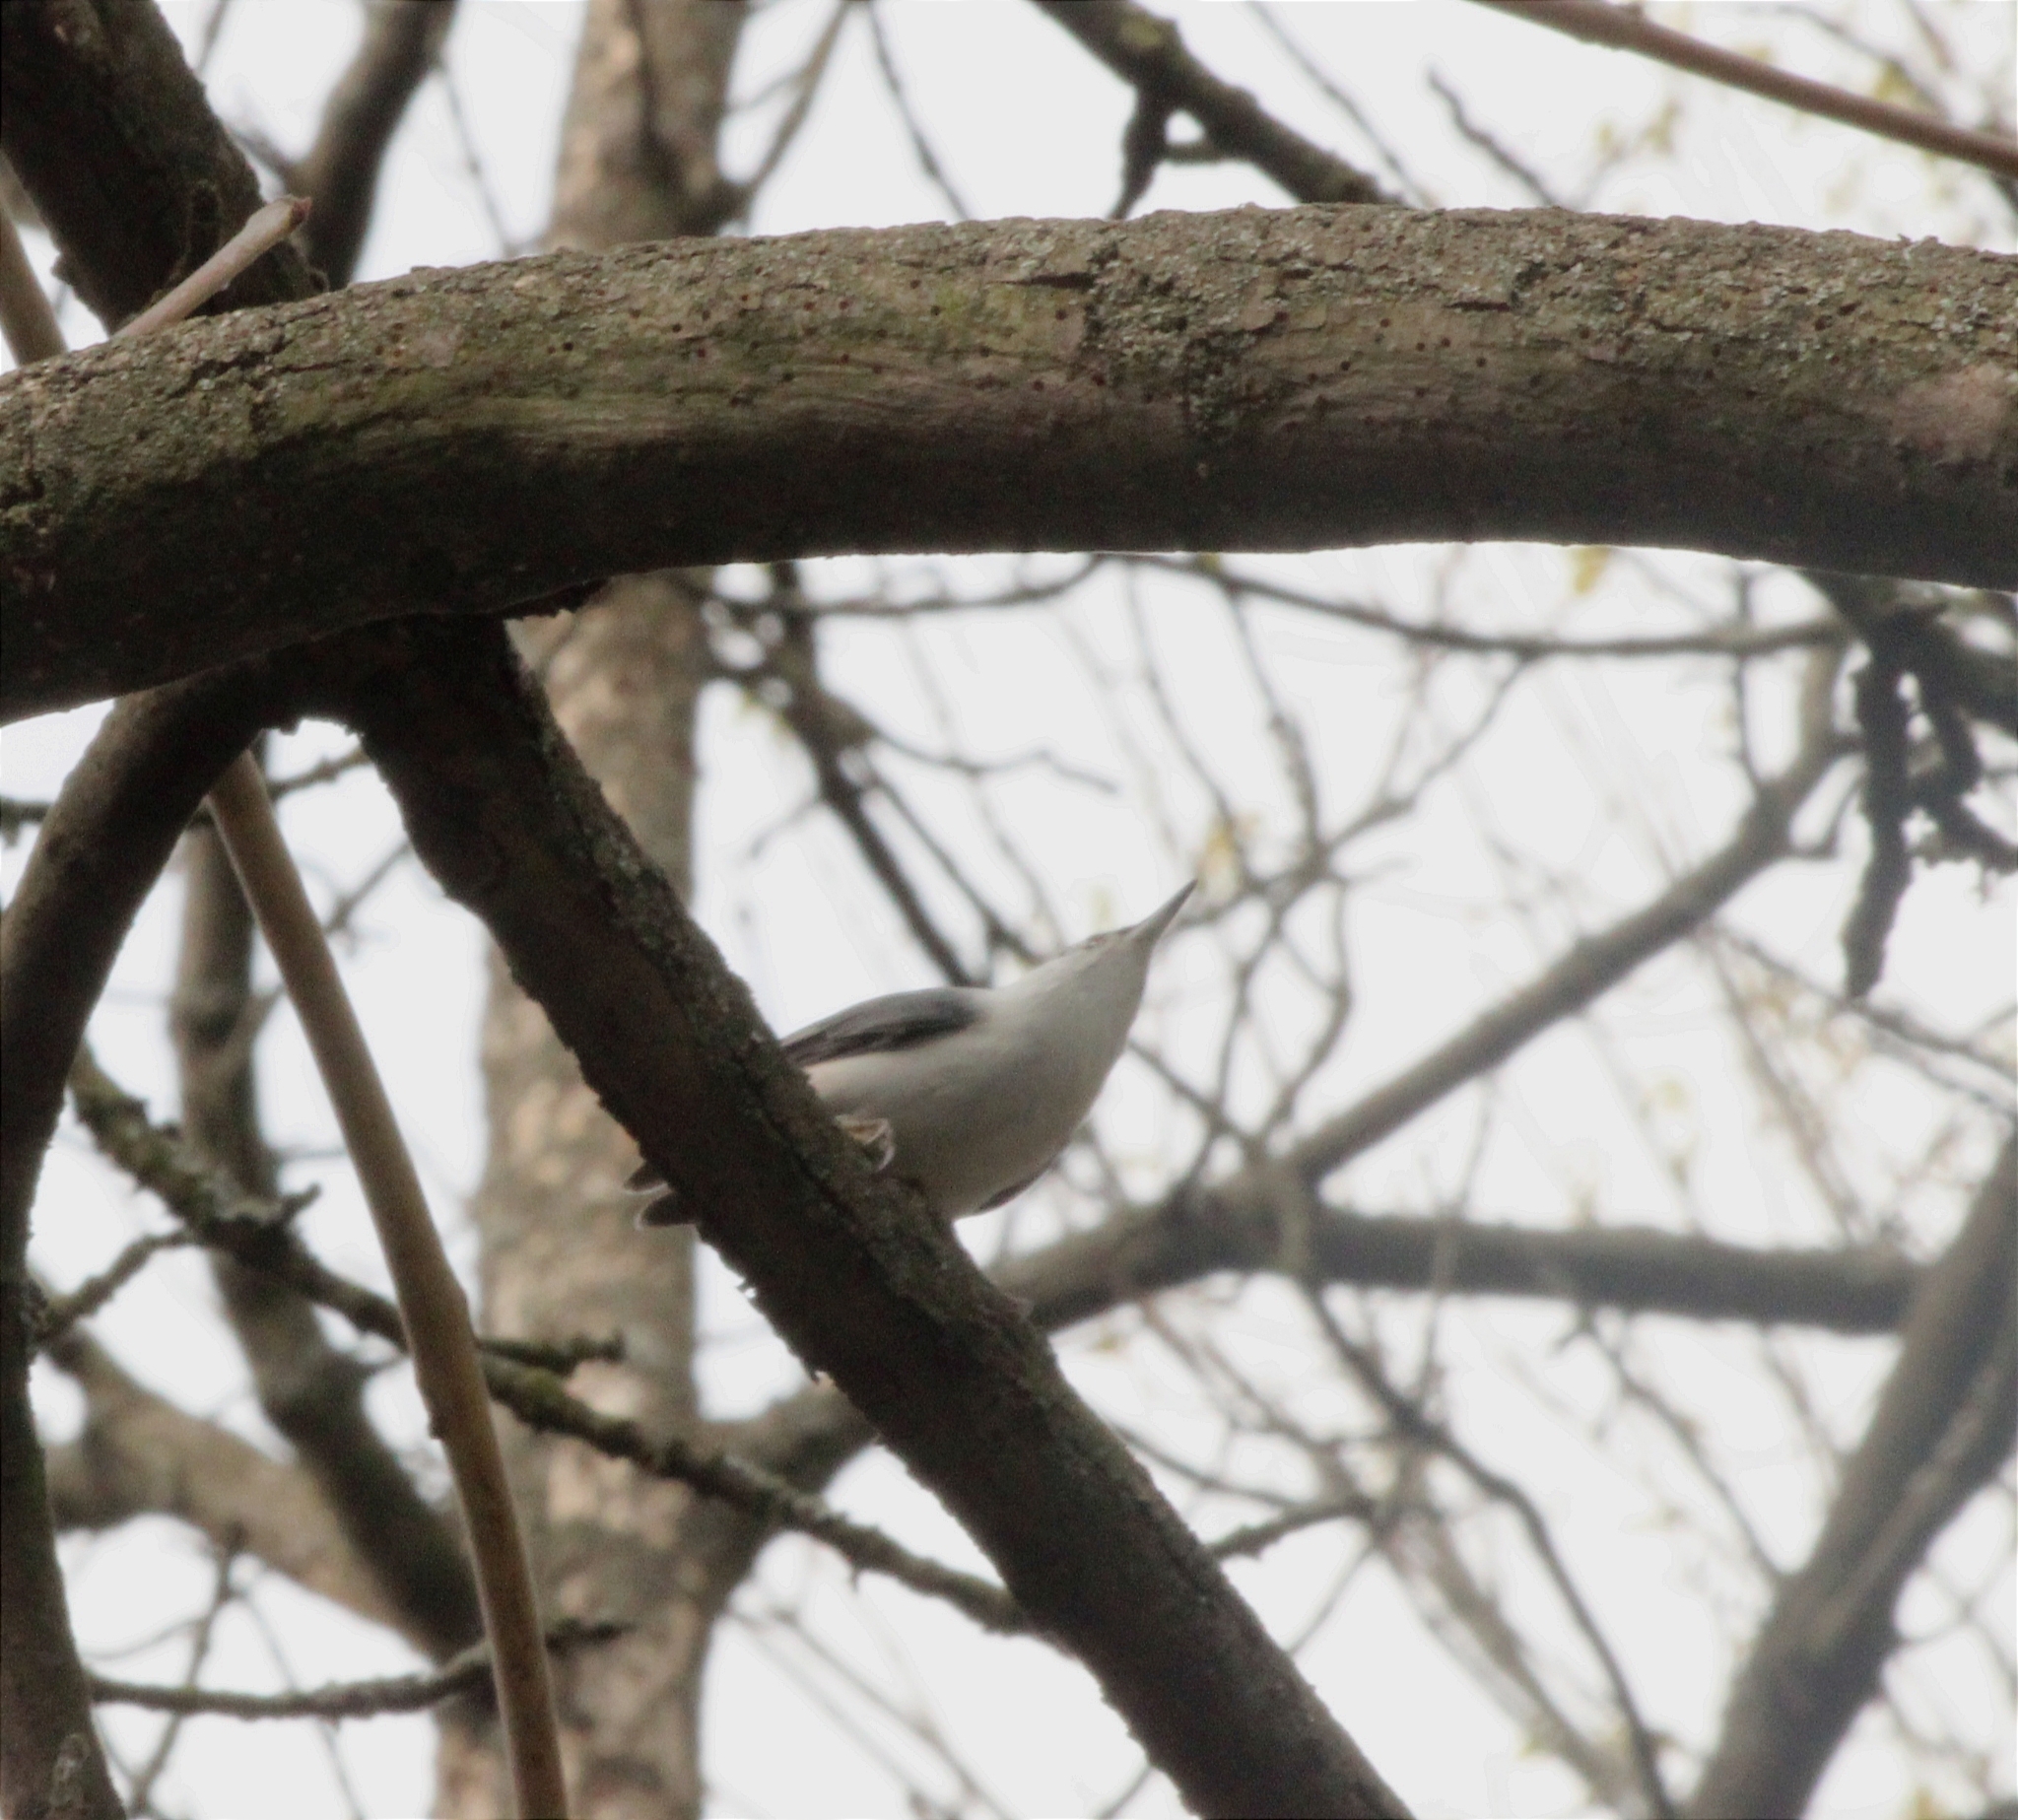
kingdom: Animalia
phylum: Chordata
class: Aves
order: Passeriformes
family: Sittidae
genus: Sitta
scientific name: Sitta europaea
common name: Eurasian nuthatch
